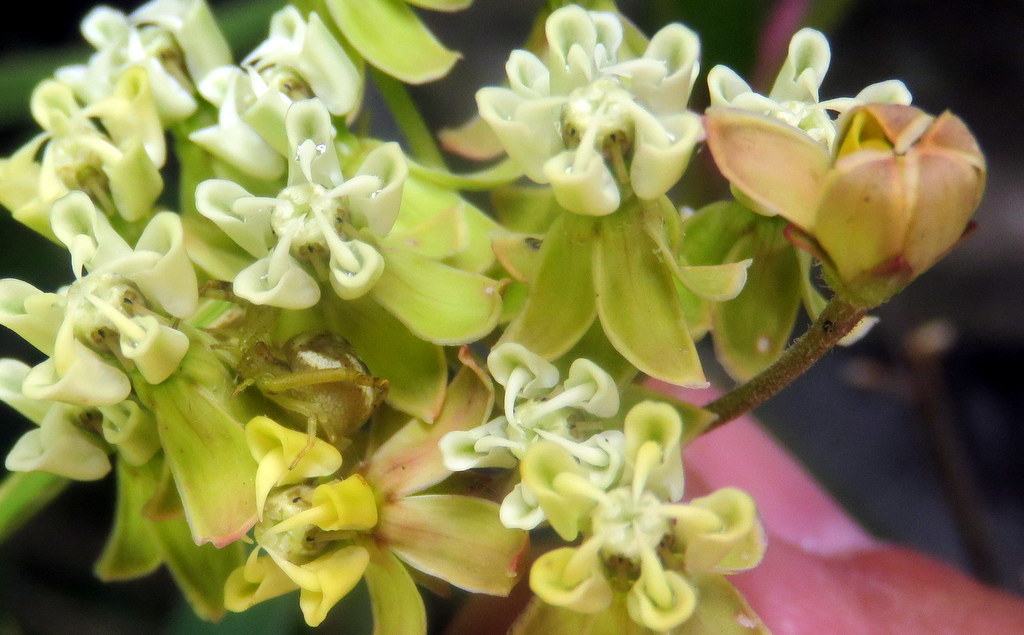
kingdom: Animalia
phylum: Arthropoda
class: Arachnida
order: Araneae
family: Thomisidae
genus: Misumenops
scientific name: Misumenops
